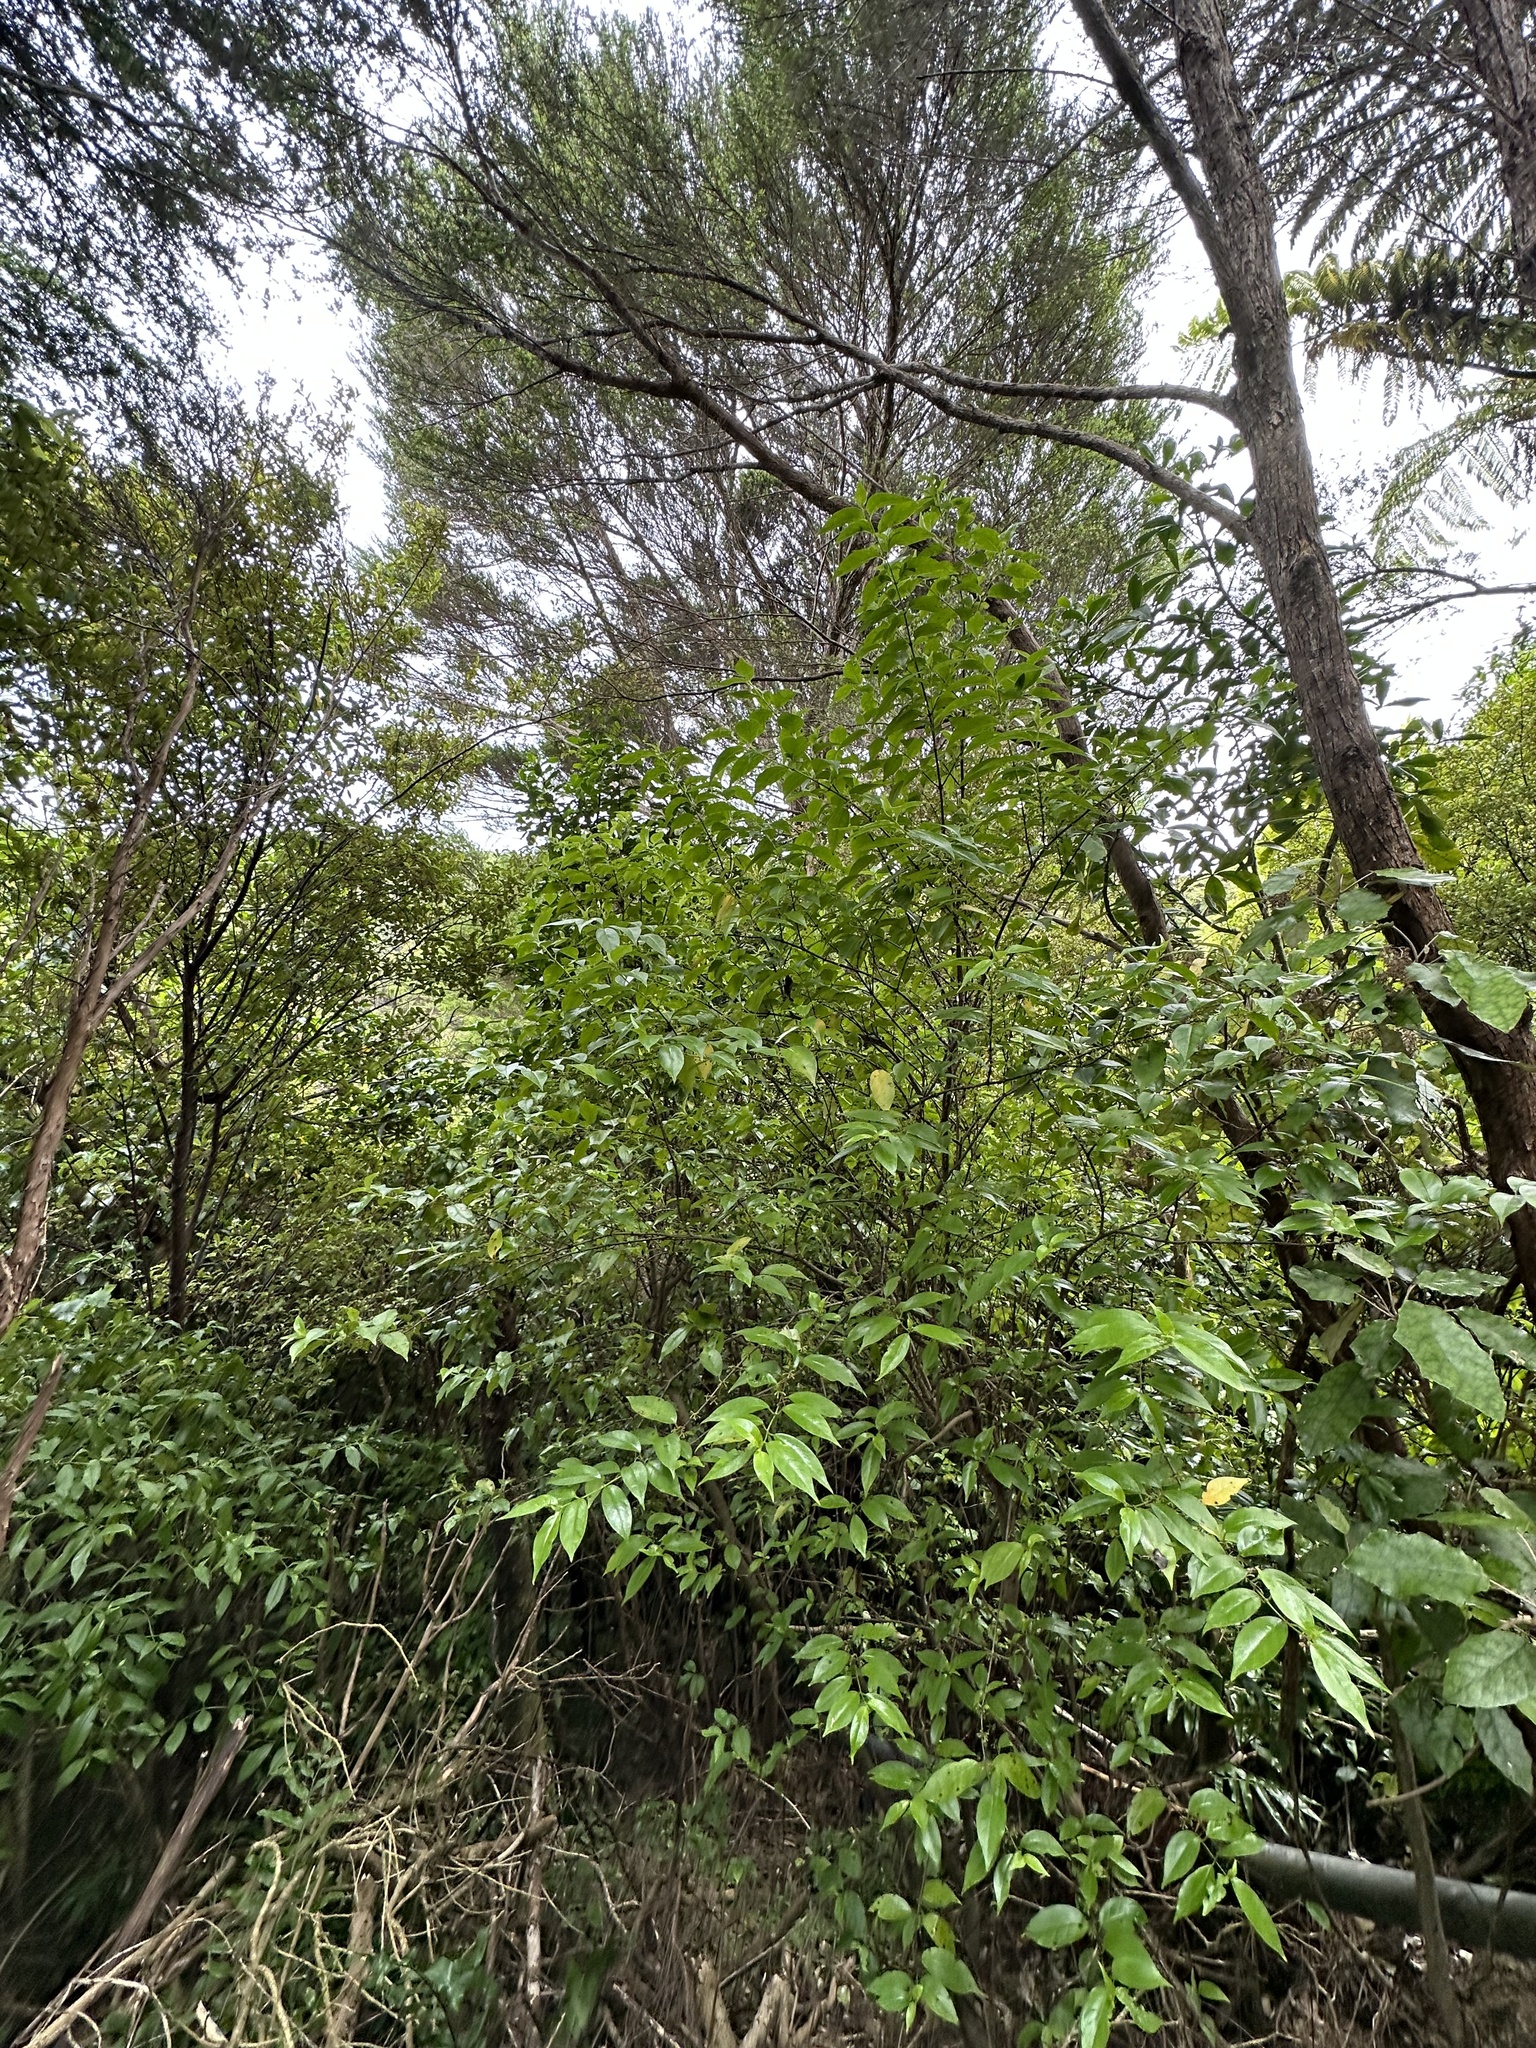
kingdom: Plantae
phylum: Tracheophyta
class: Magnoliopsida
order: Gentianales
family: Loganiaceae
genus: Geniostoma
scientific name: Geniostoma ligustrifolium
